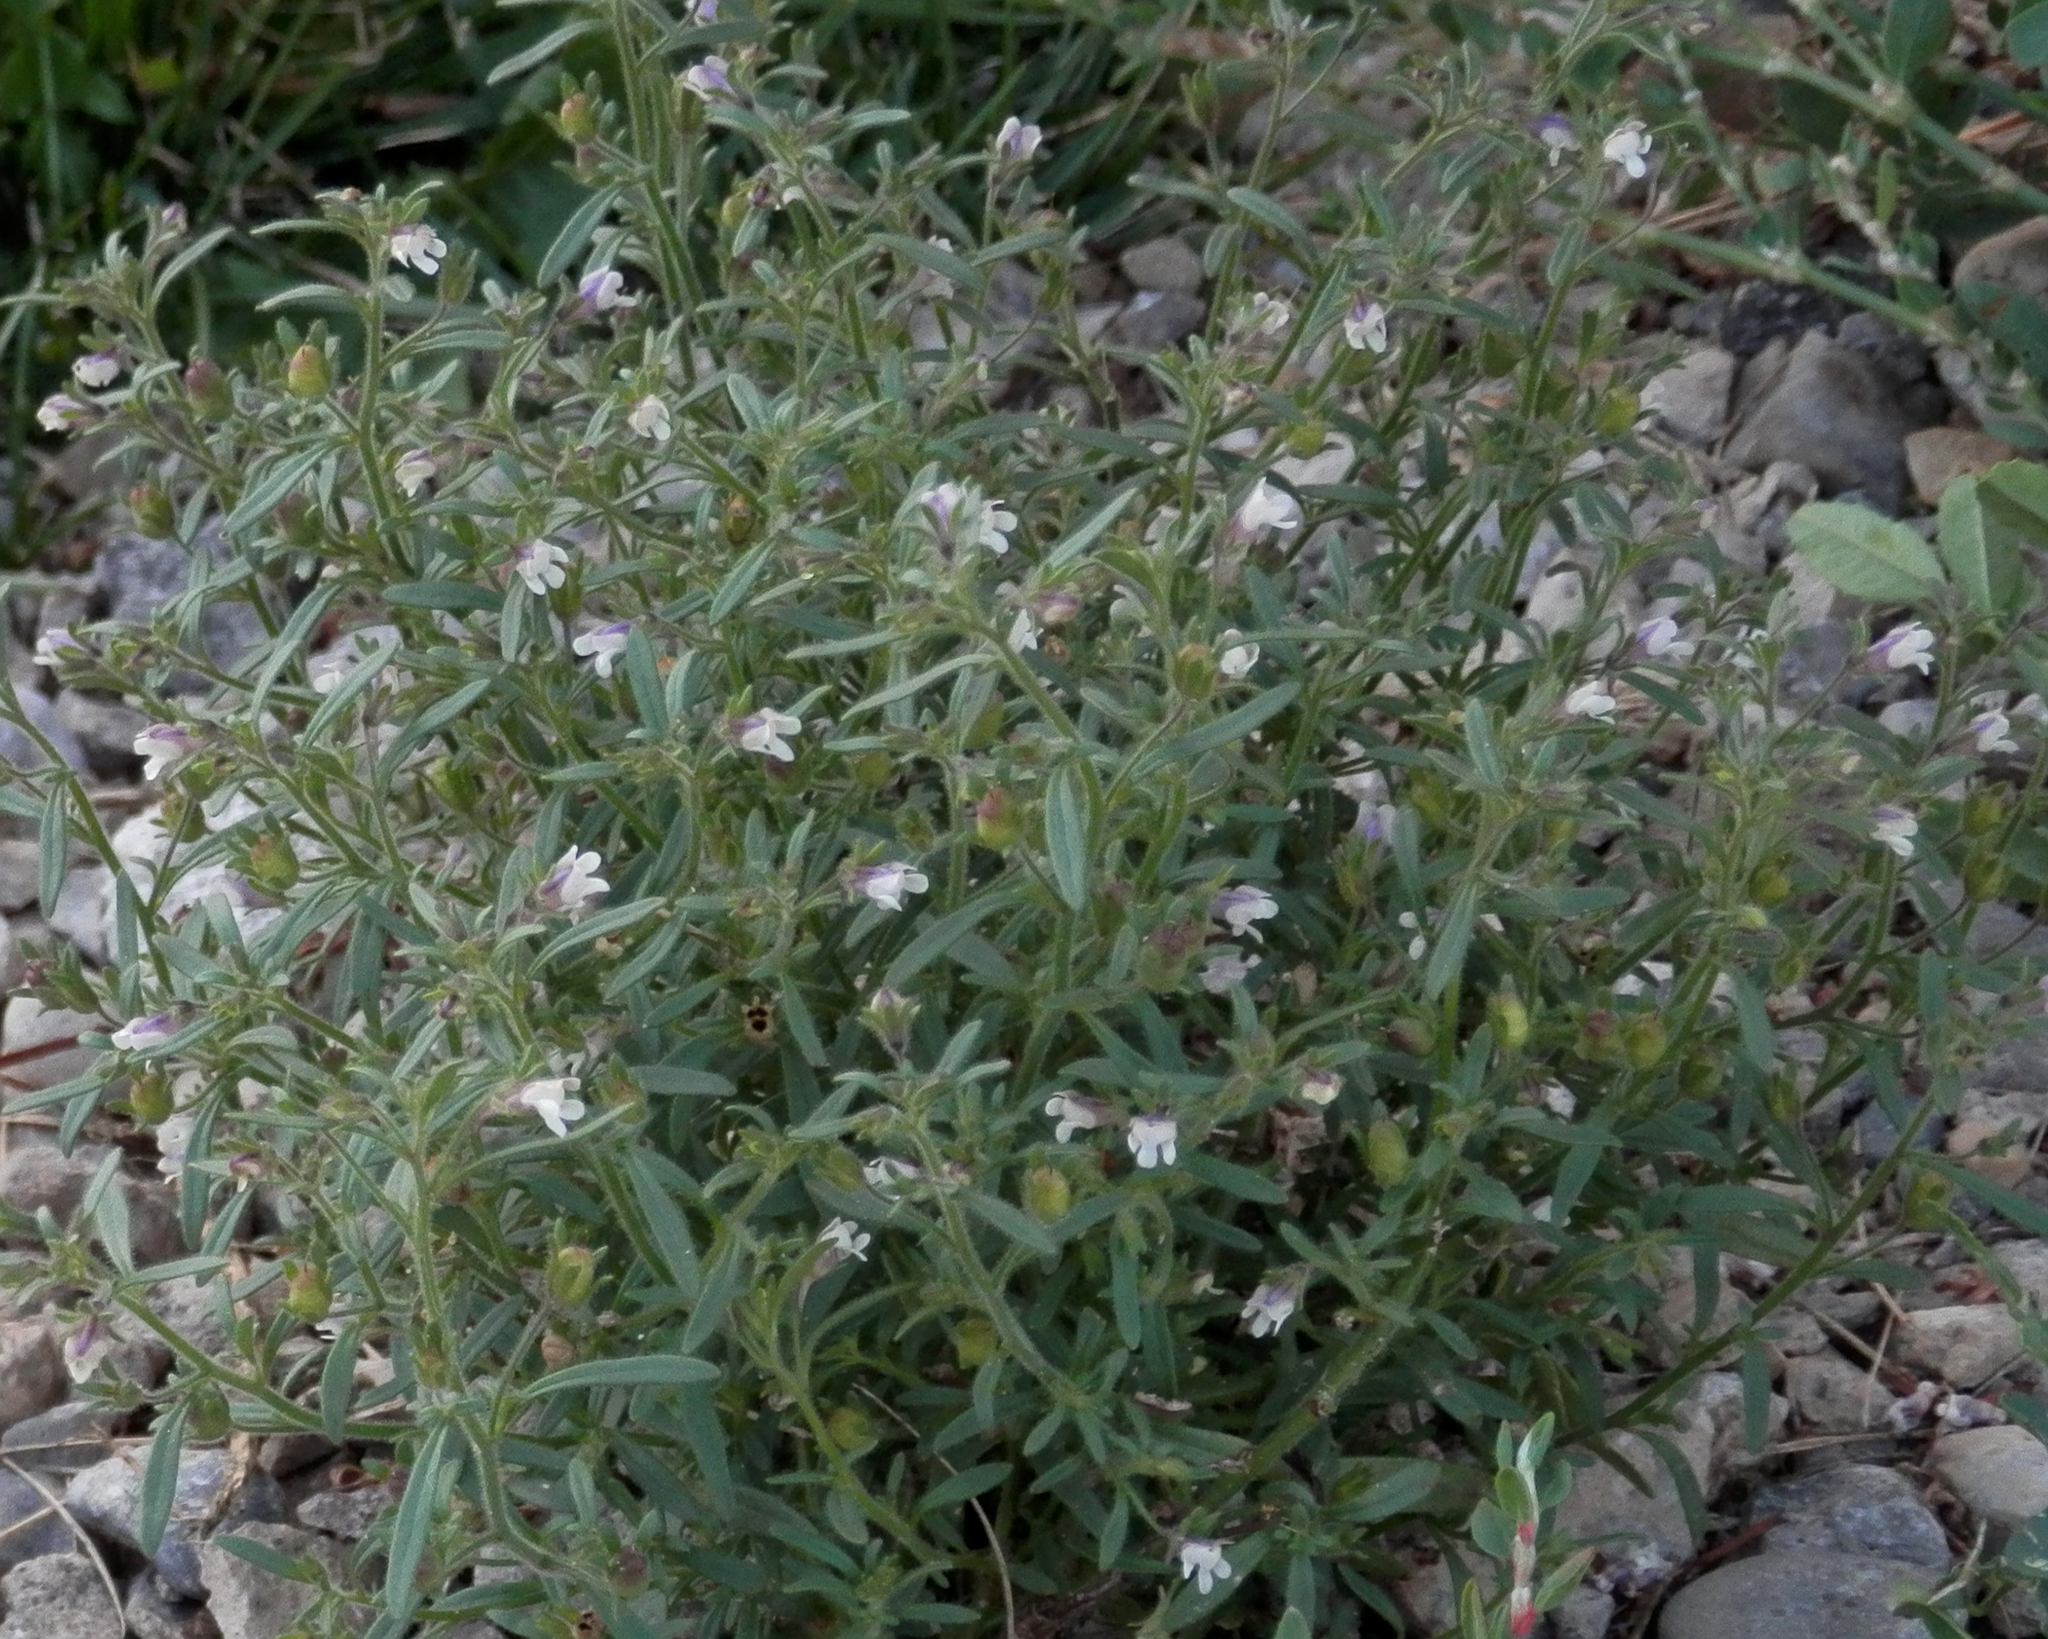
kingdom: Plantae
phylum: Tracheophyta
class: Magnoliopsida
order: Lamiales
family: Plantaginaceae
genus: Chaenorhinum
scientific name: Chaenorhinum minus
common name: Dwarf snapdragon
